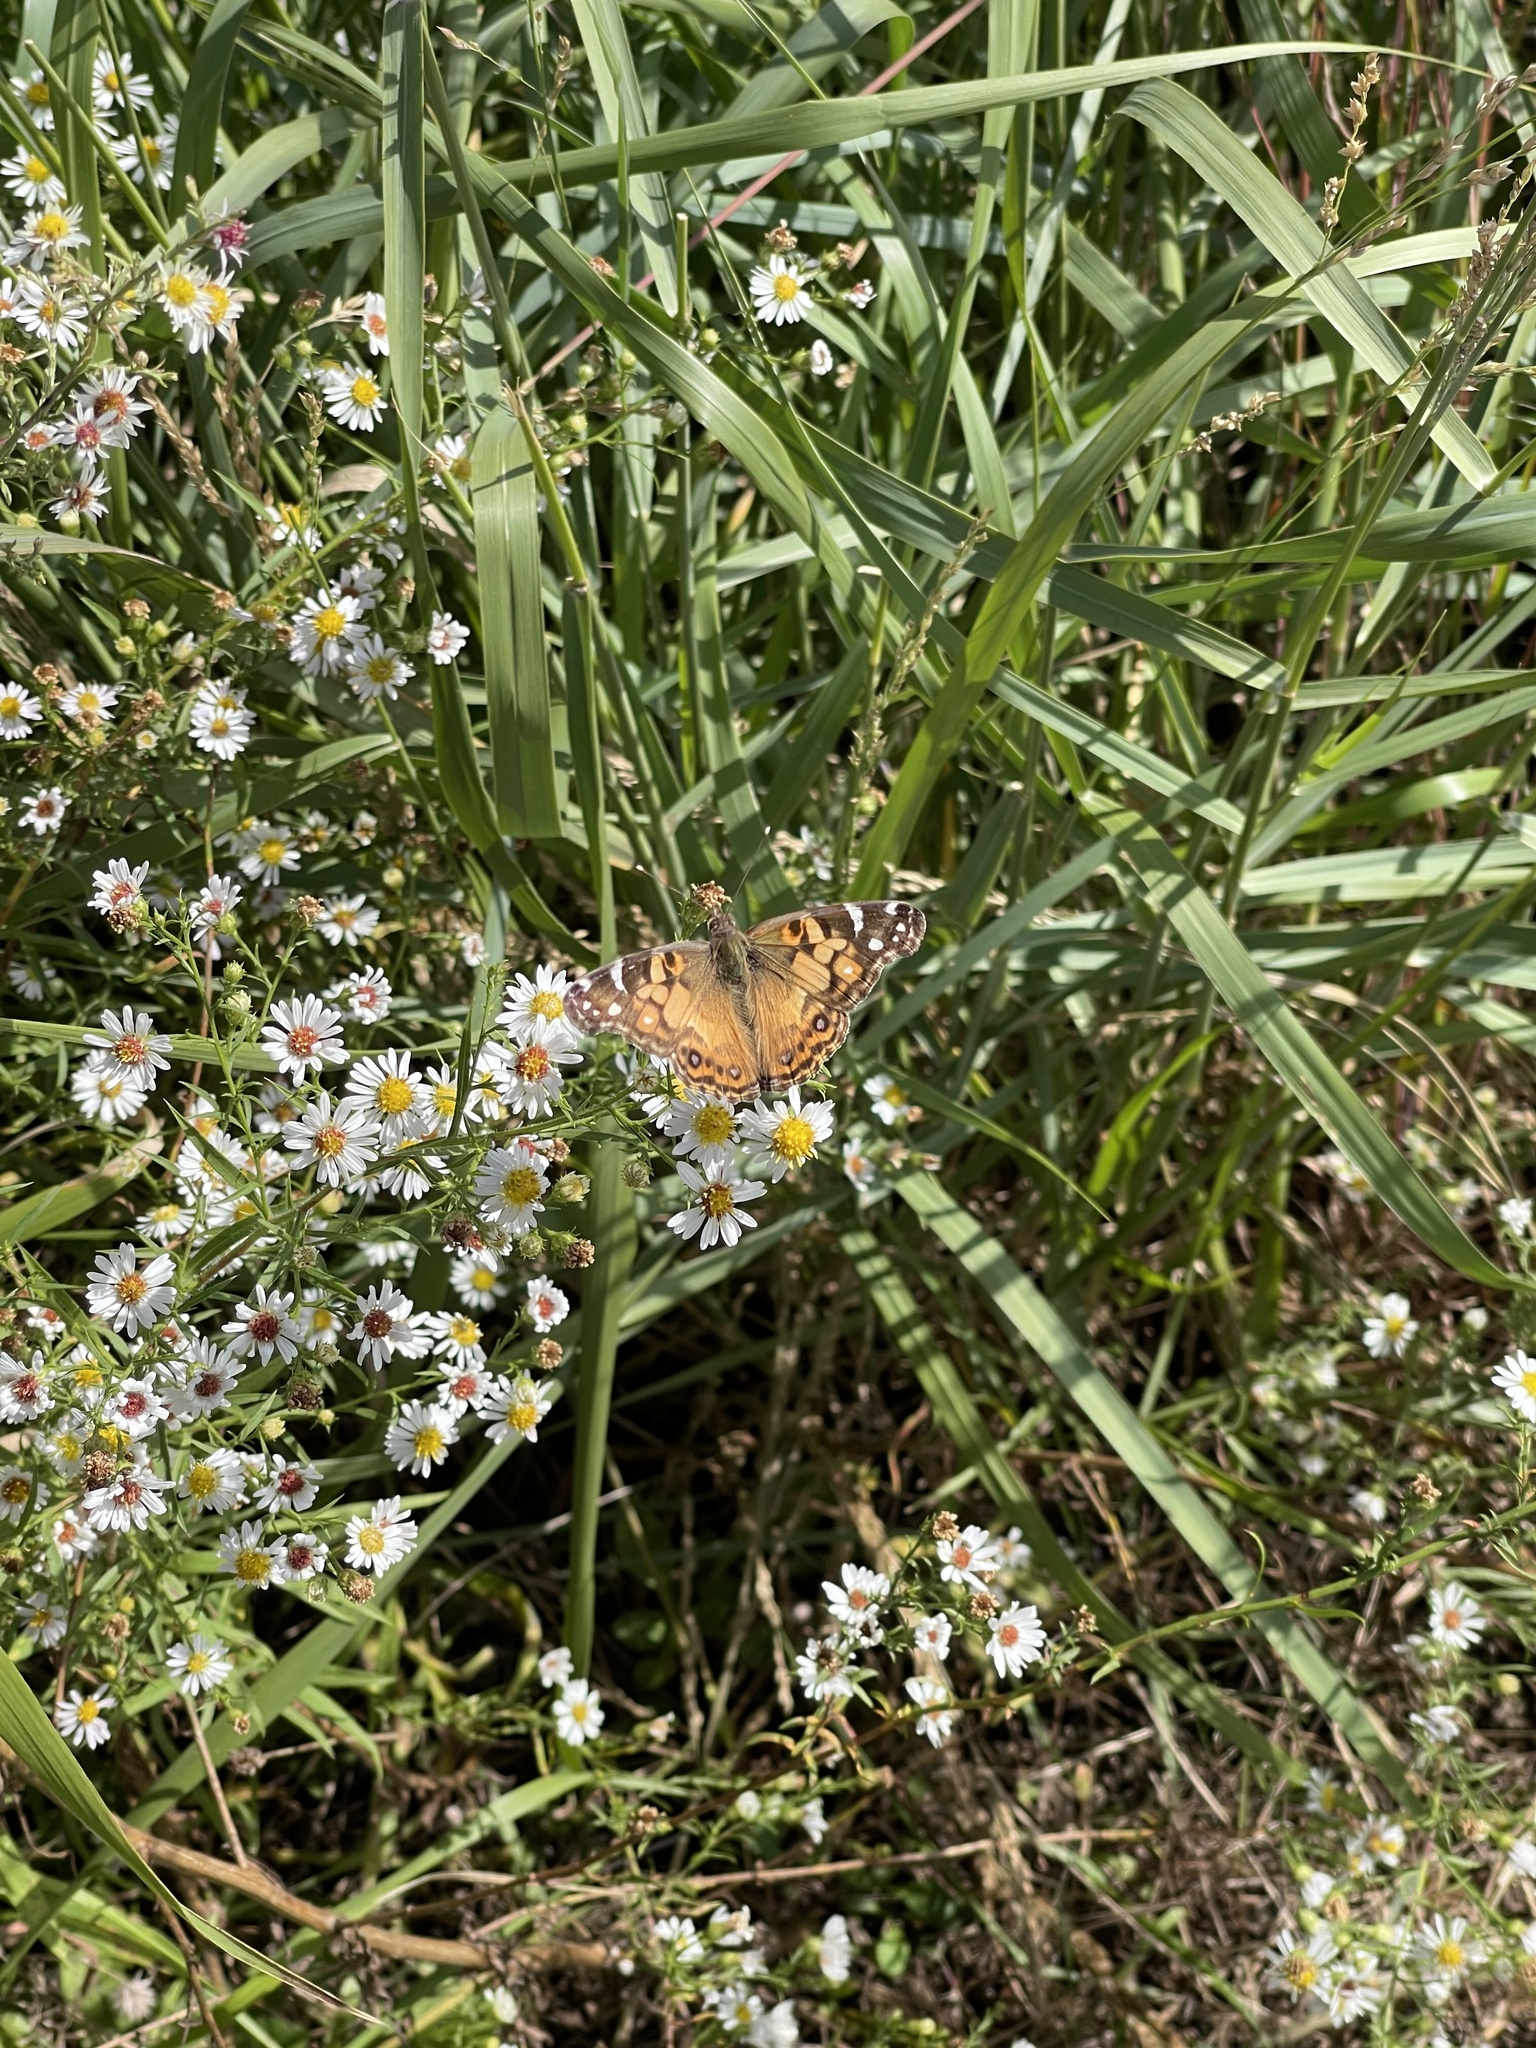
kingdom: Animalia
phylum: Arthropoda
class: Insecta
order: Lepidoptera
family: Nymphalidae
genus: Vanessa
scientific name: Vanessa virginiensis
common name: American lady
